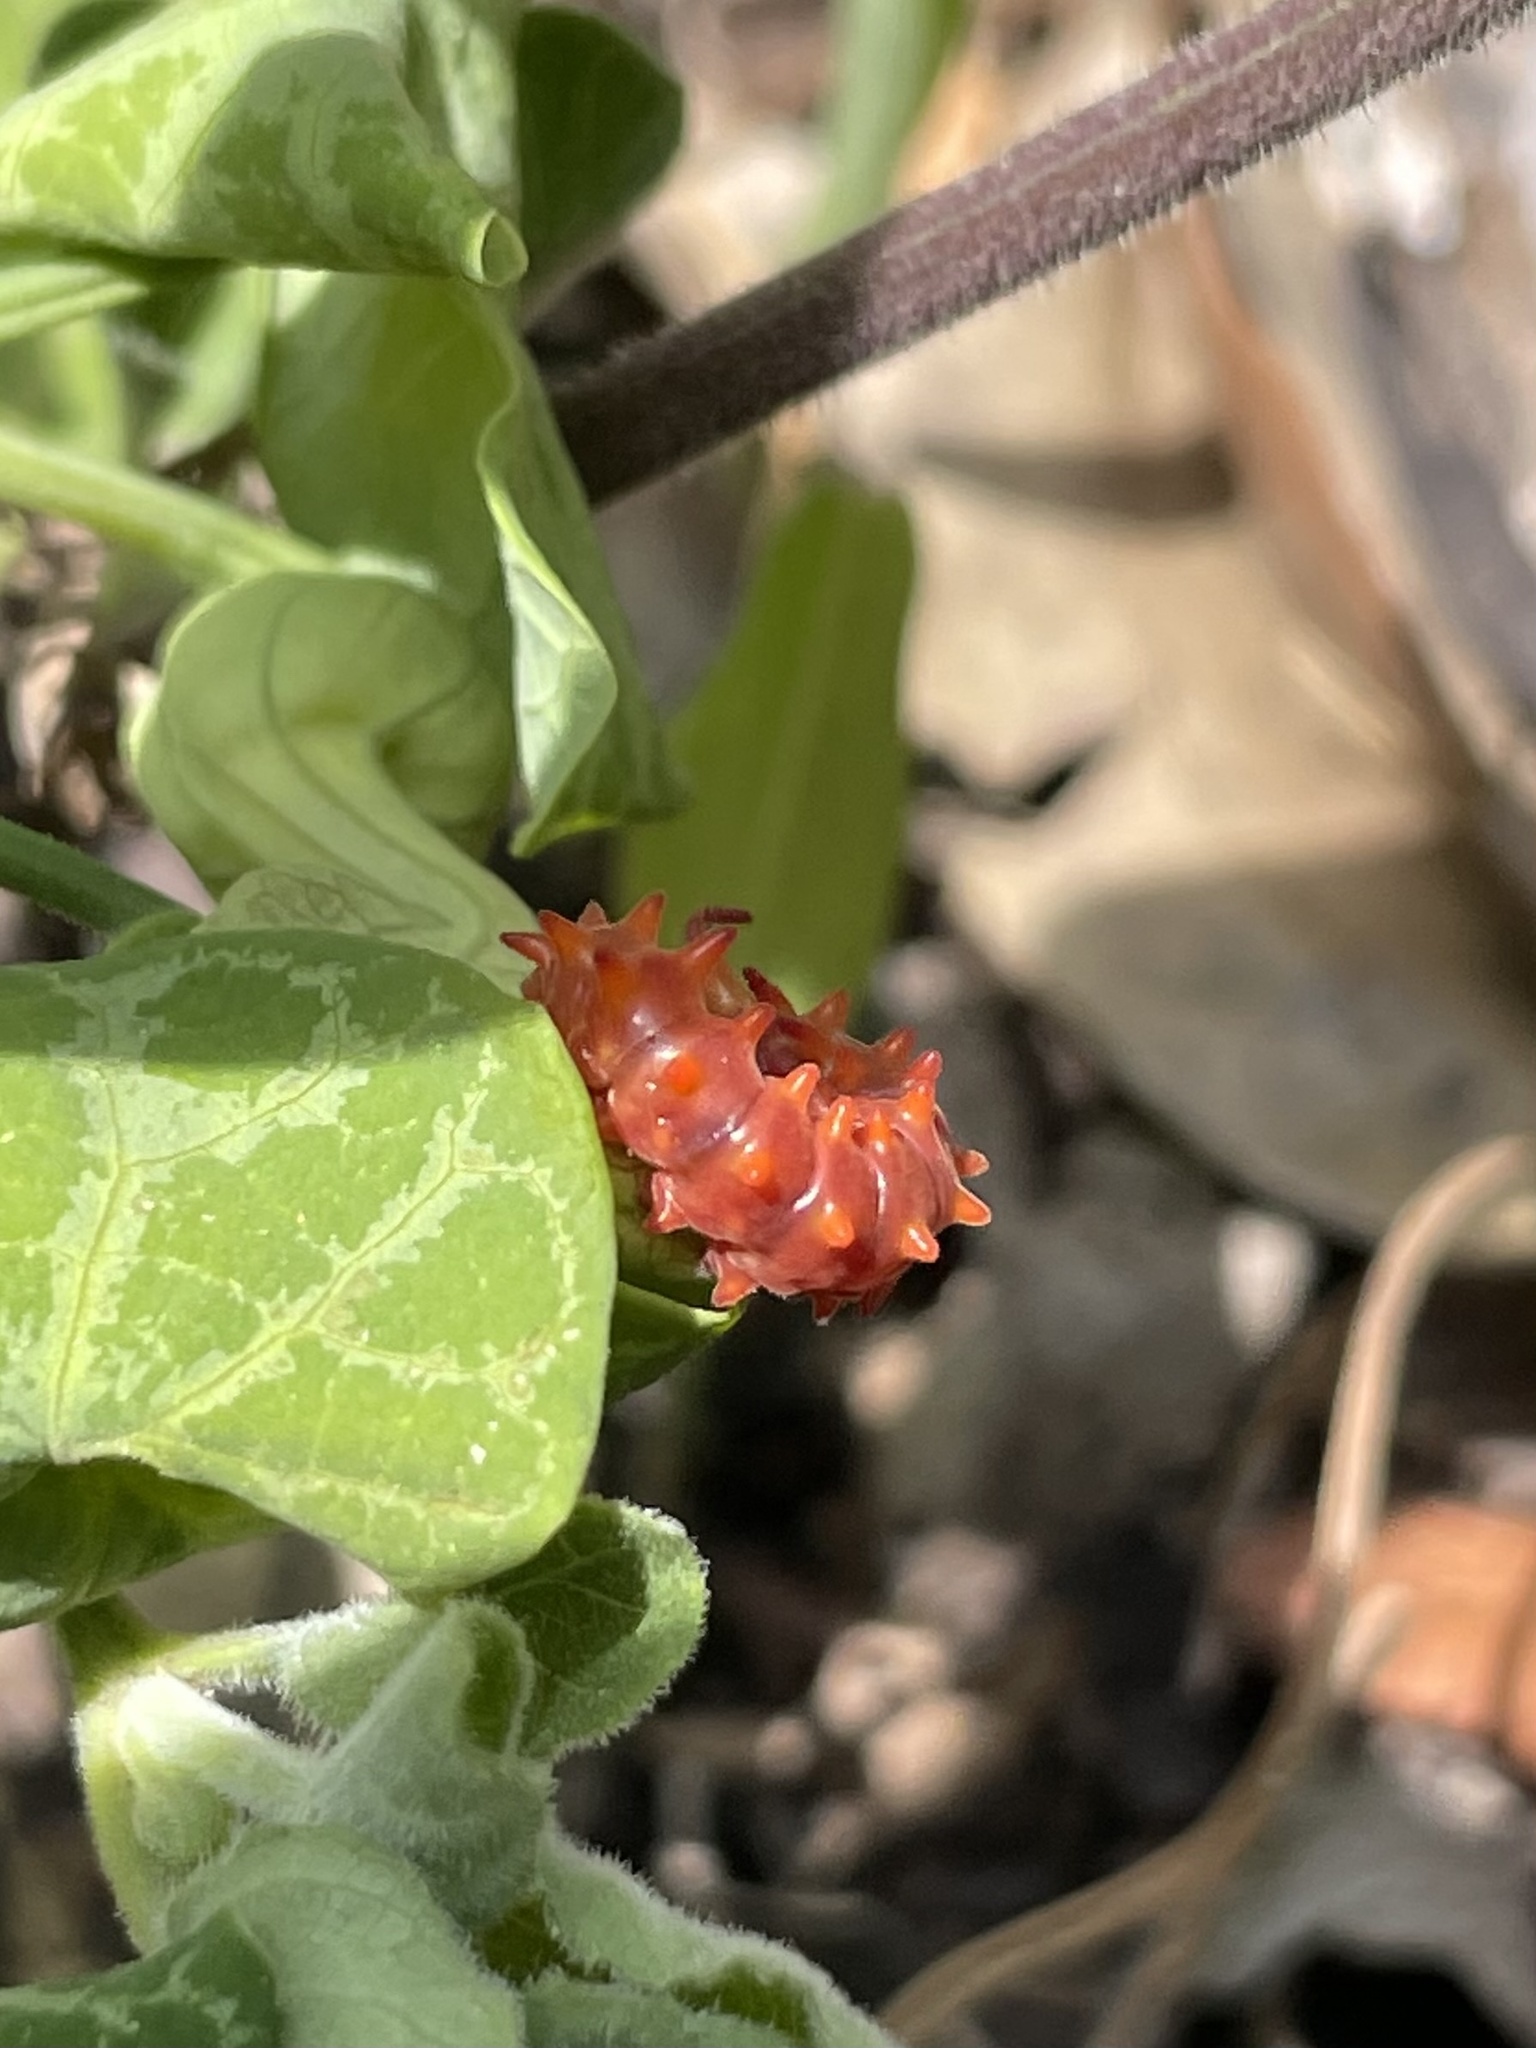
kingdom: Animalia
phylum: Arthropoda
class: Insecta
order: Lepidoptera
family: Papilionidae
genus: Battus
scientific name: Battus philenor
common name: Pipevine swallowtail
